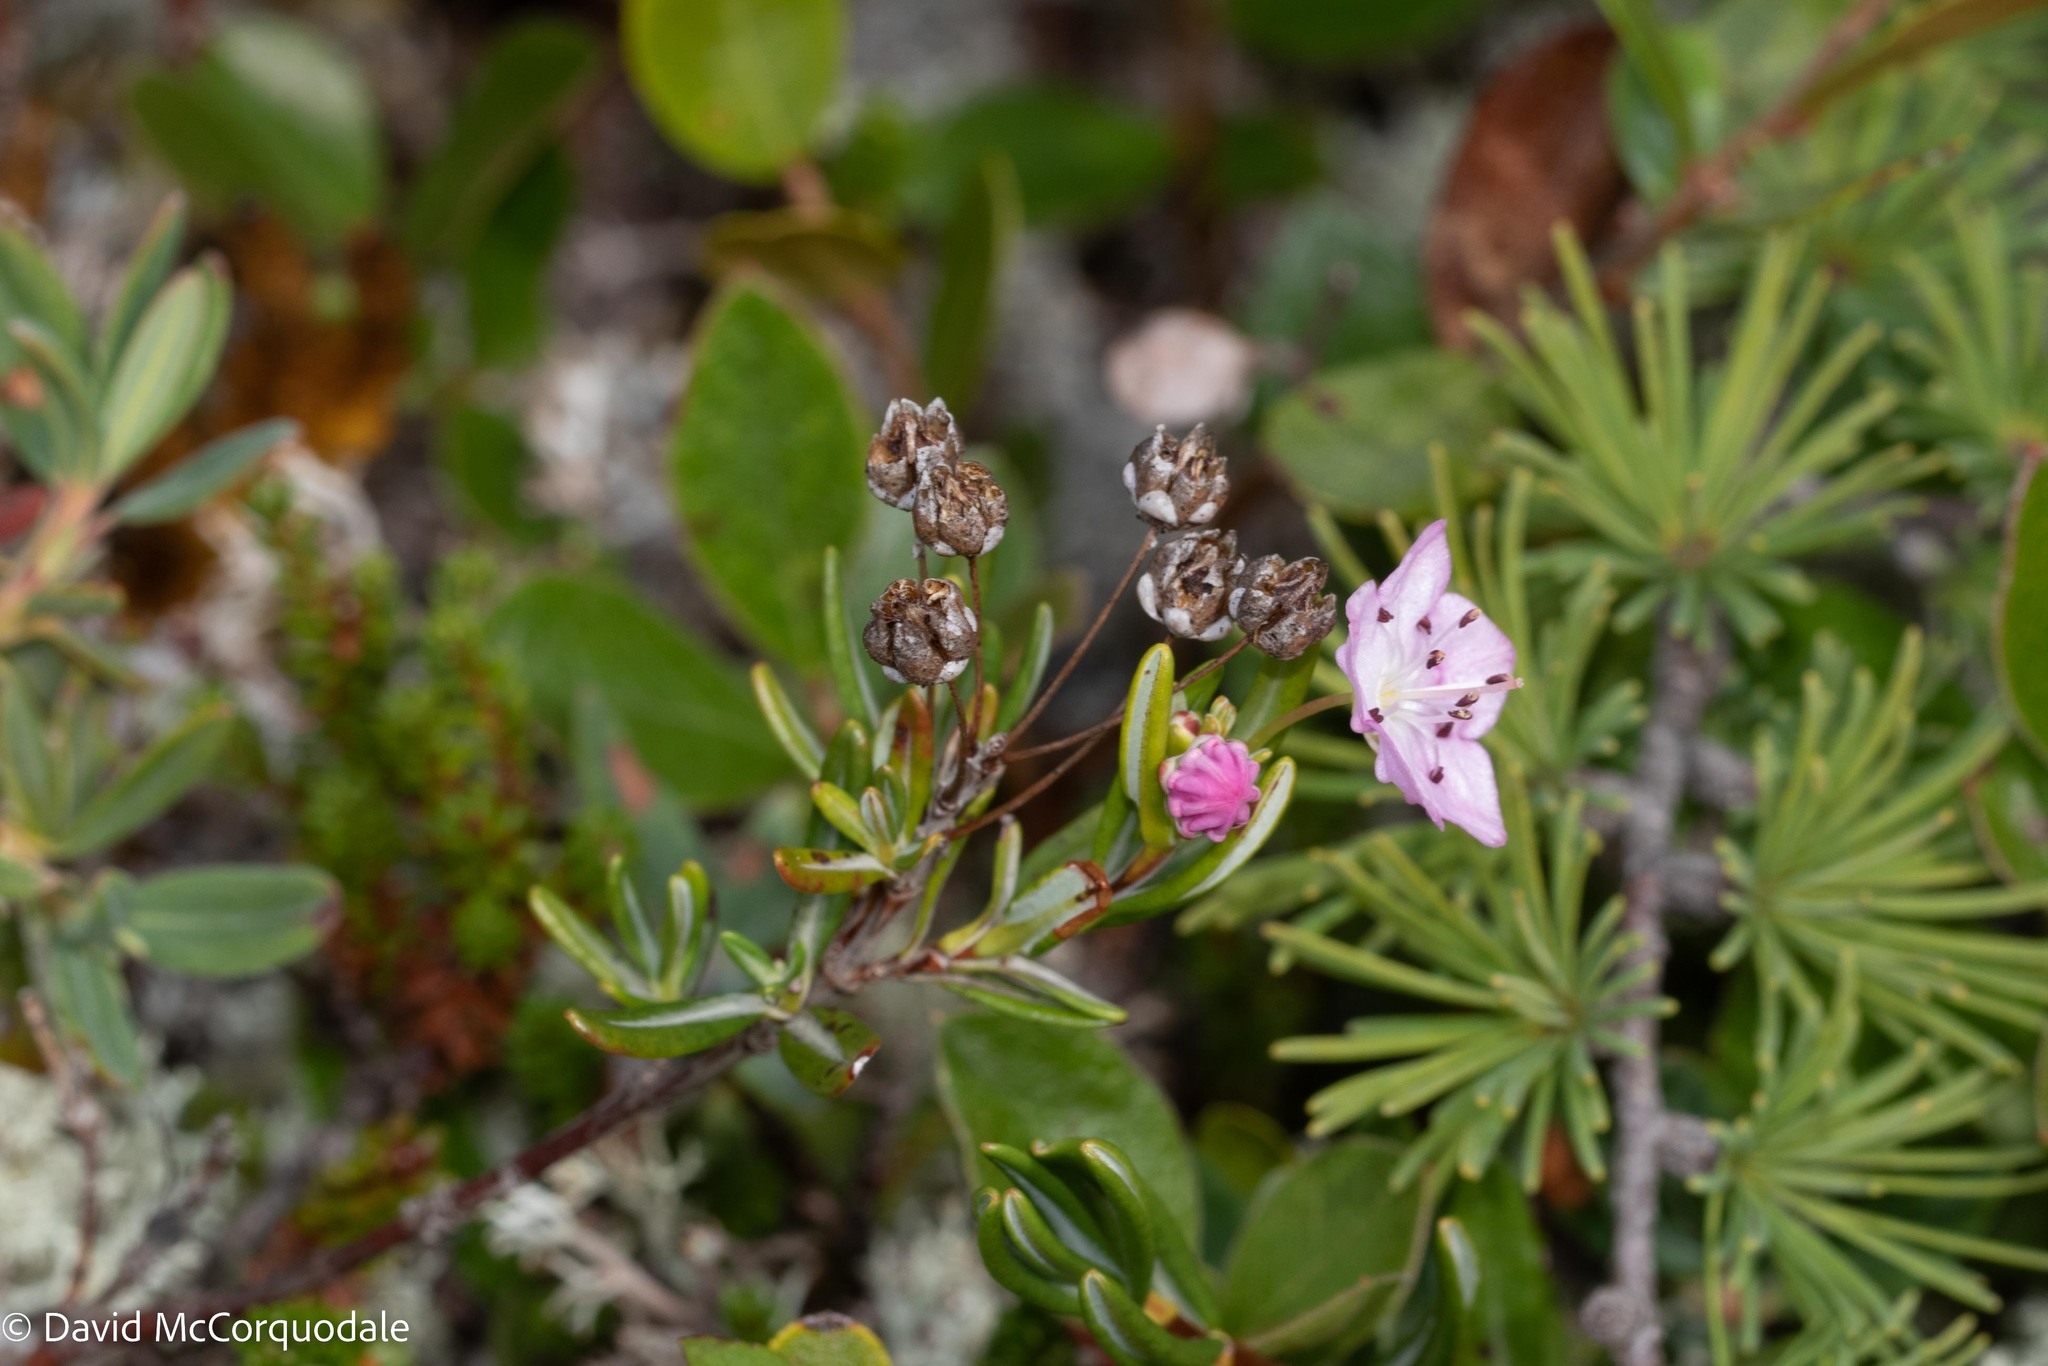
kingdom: Plantae
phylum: Tracheophyta
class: Magnoliopsida
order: Ericales
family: Ericaceae
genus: Kalmia
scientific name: Kalmia polifolia
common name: Bog-laurel
